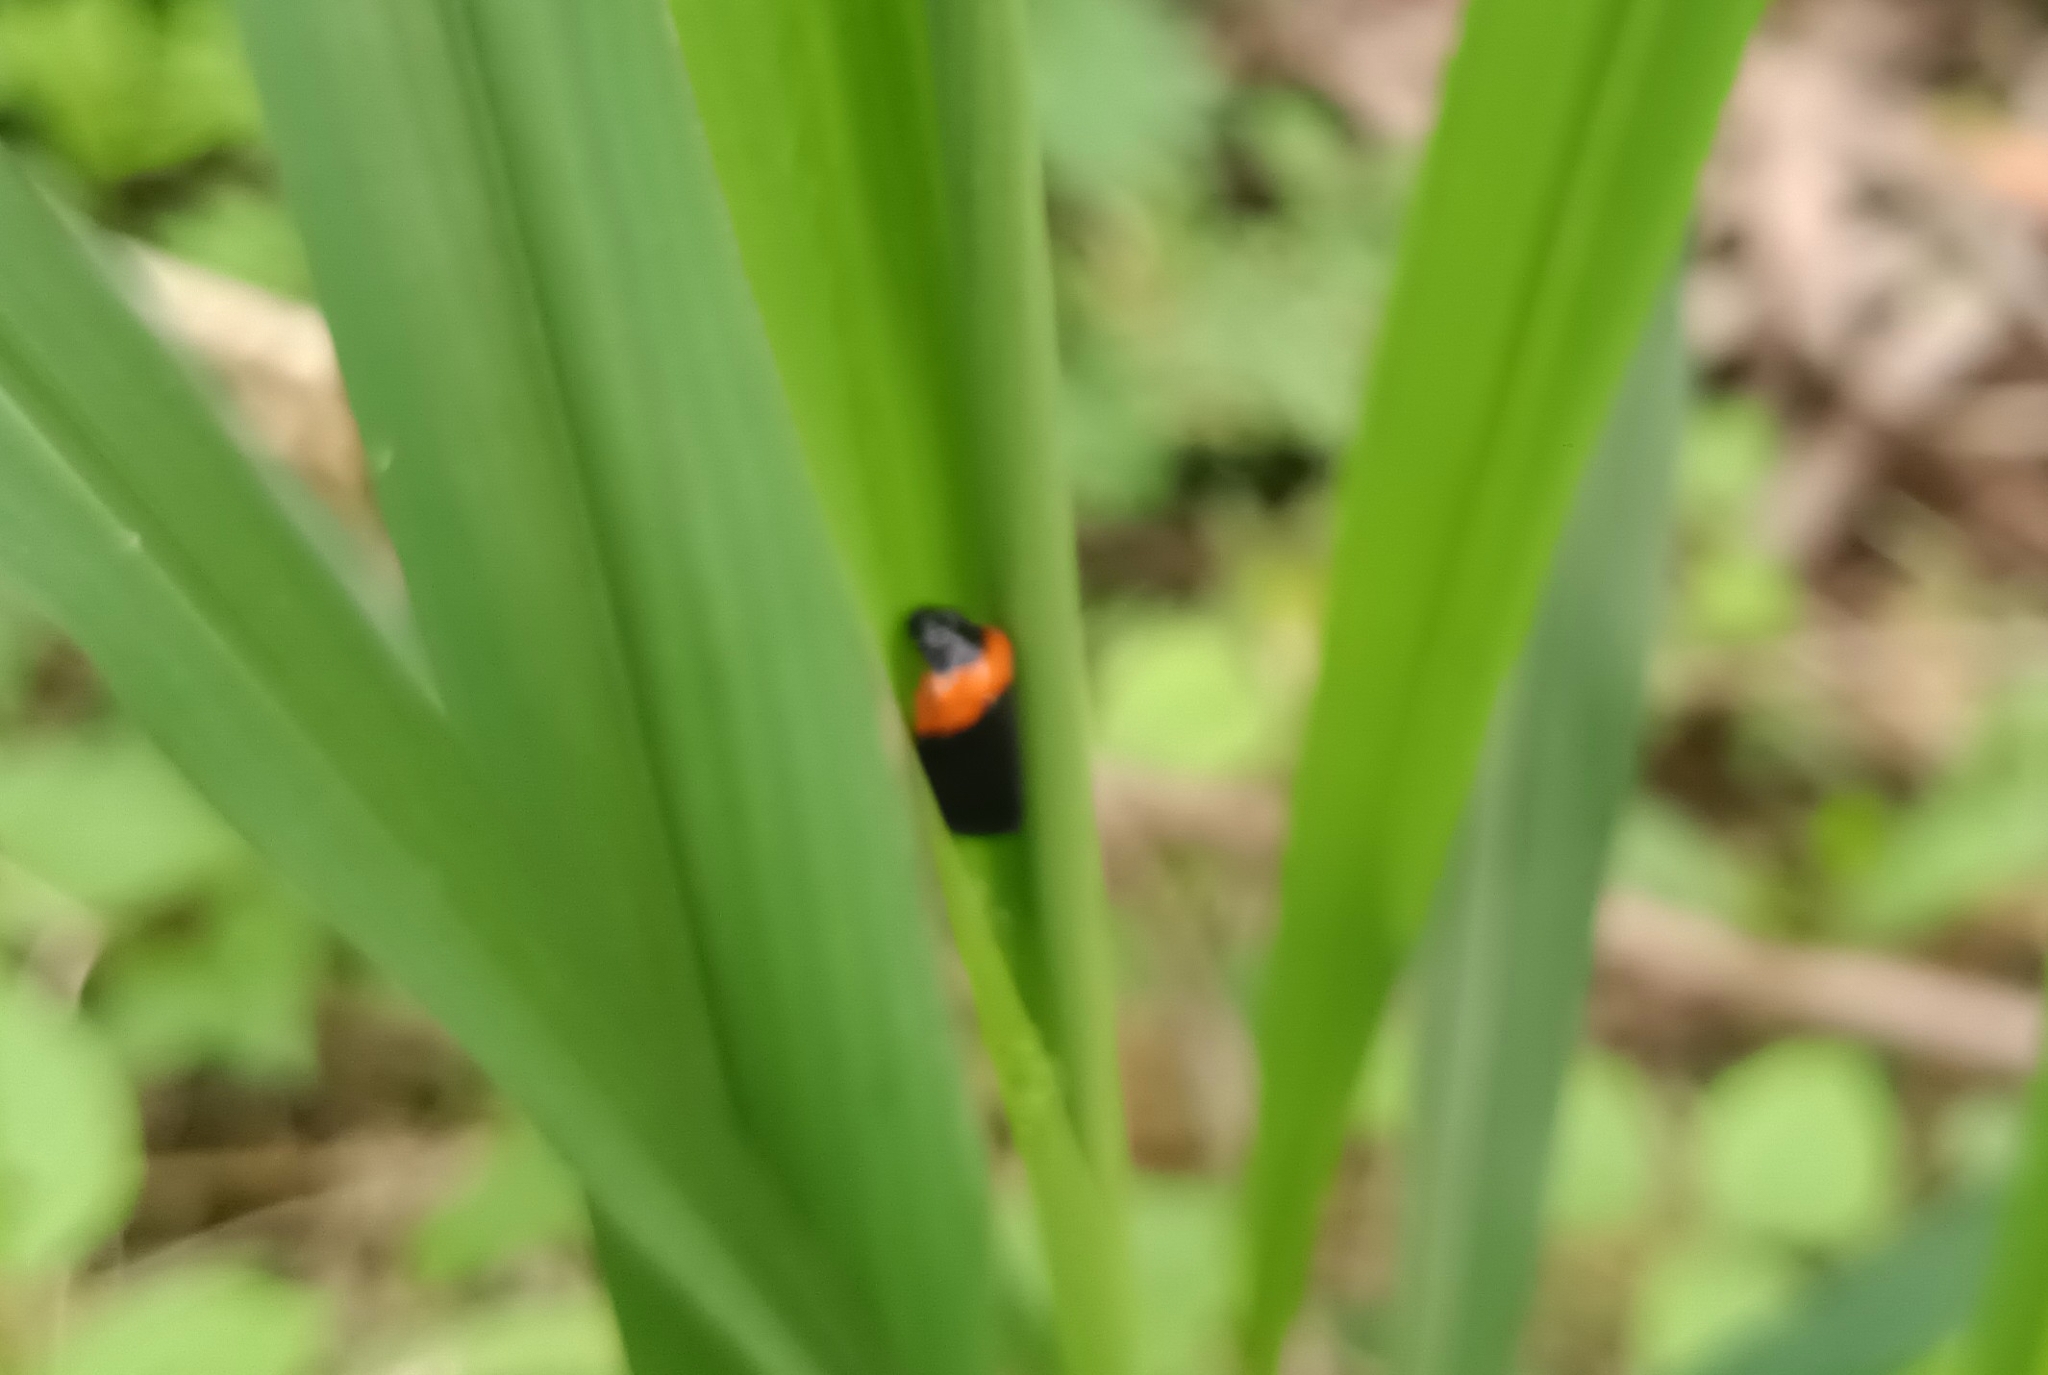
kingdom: Animalia
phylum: Arthropoda
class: Insecta
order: Hemiptera
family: Cercopidae
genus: Phymatostetha
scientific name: Phymatostetha deschampsi
